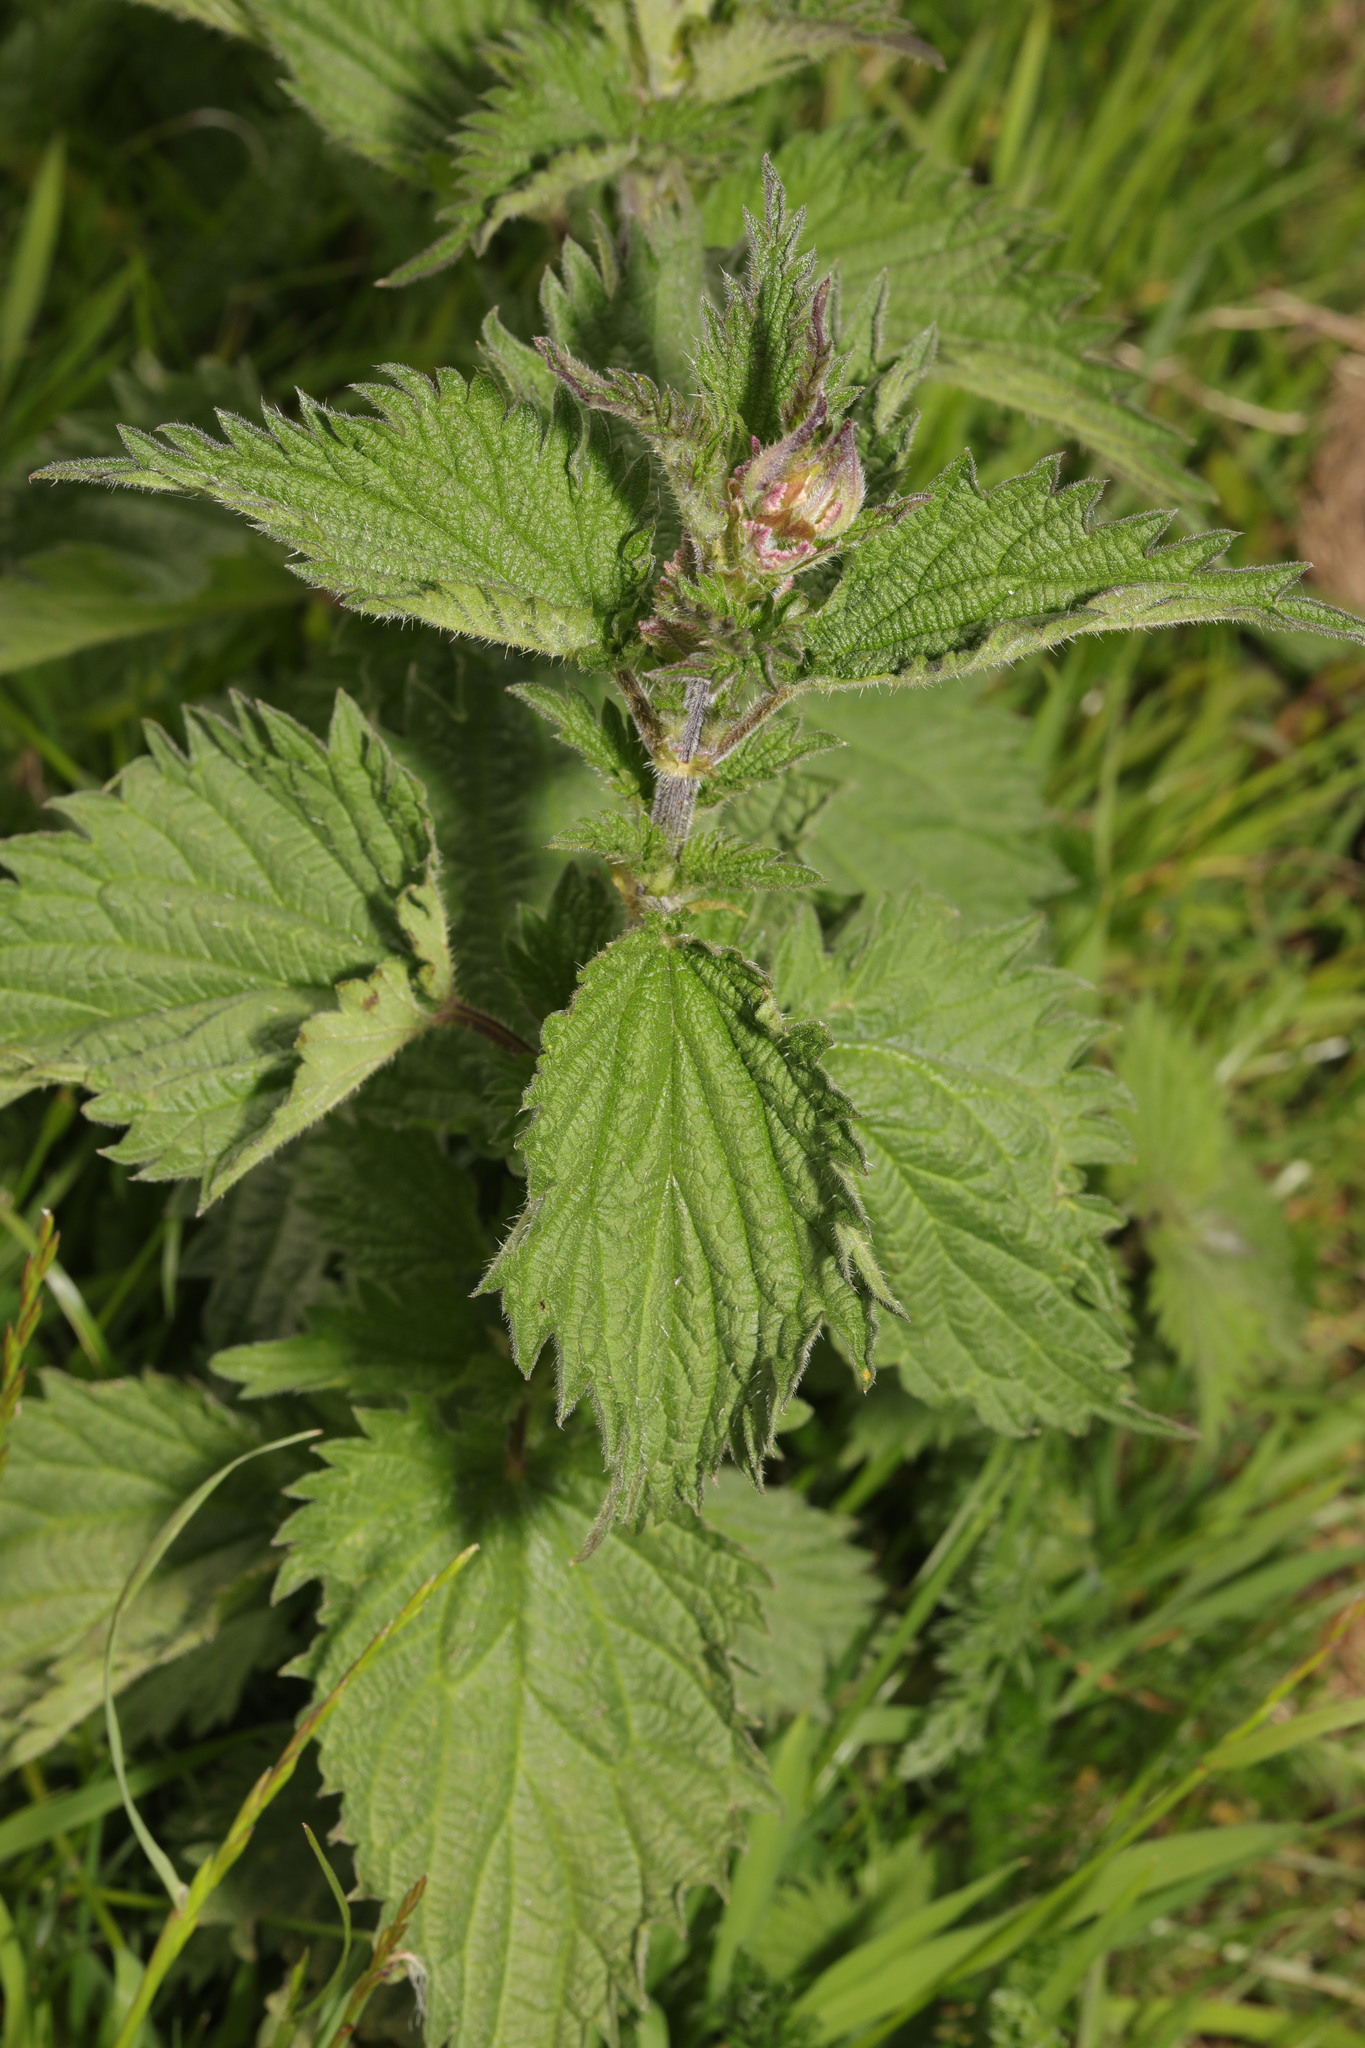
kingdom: Plantae
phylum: Tracheophyta
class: Magnoliopsida
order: Rosales
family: Urticaceae
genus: Urtica
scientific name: Urtica dioica
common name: Common nettle
